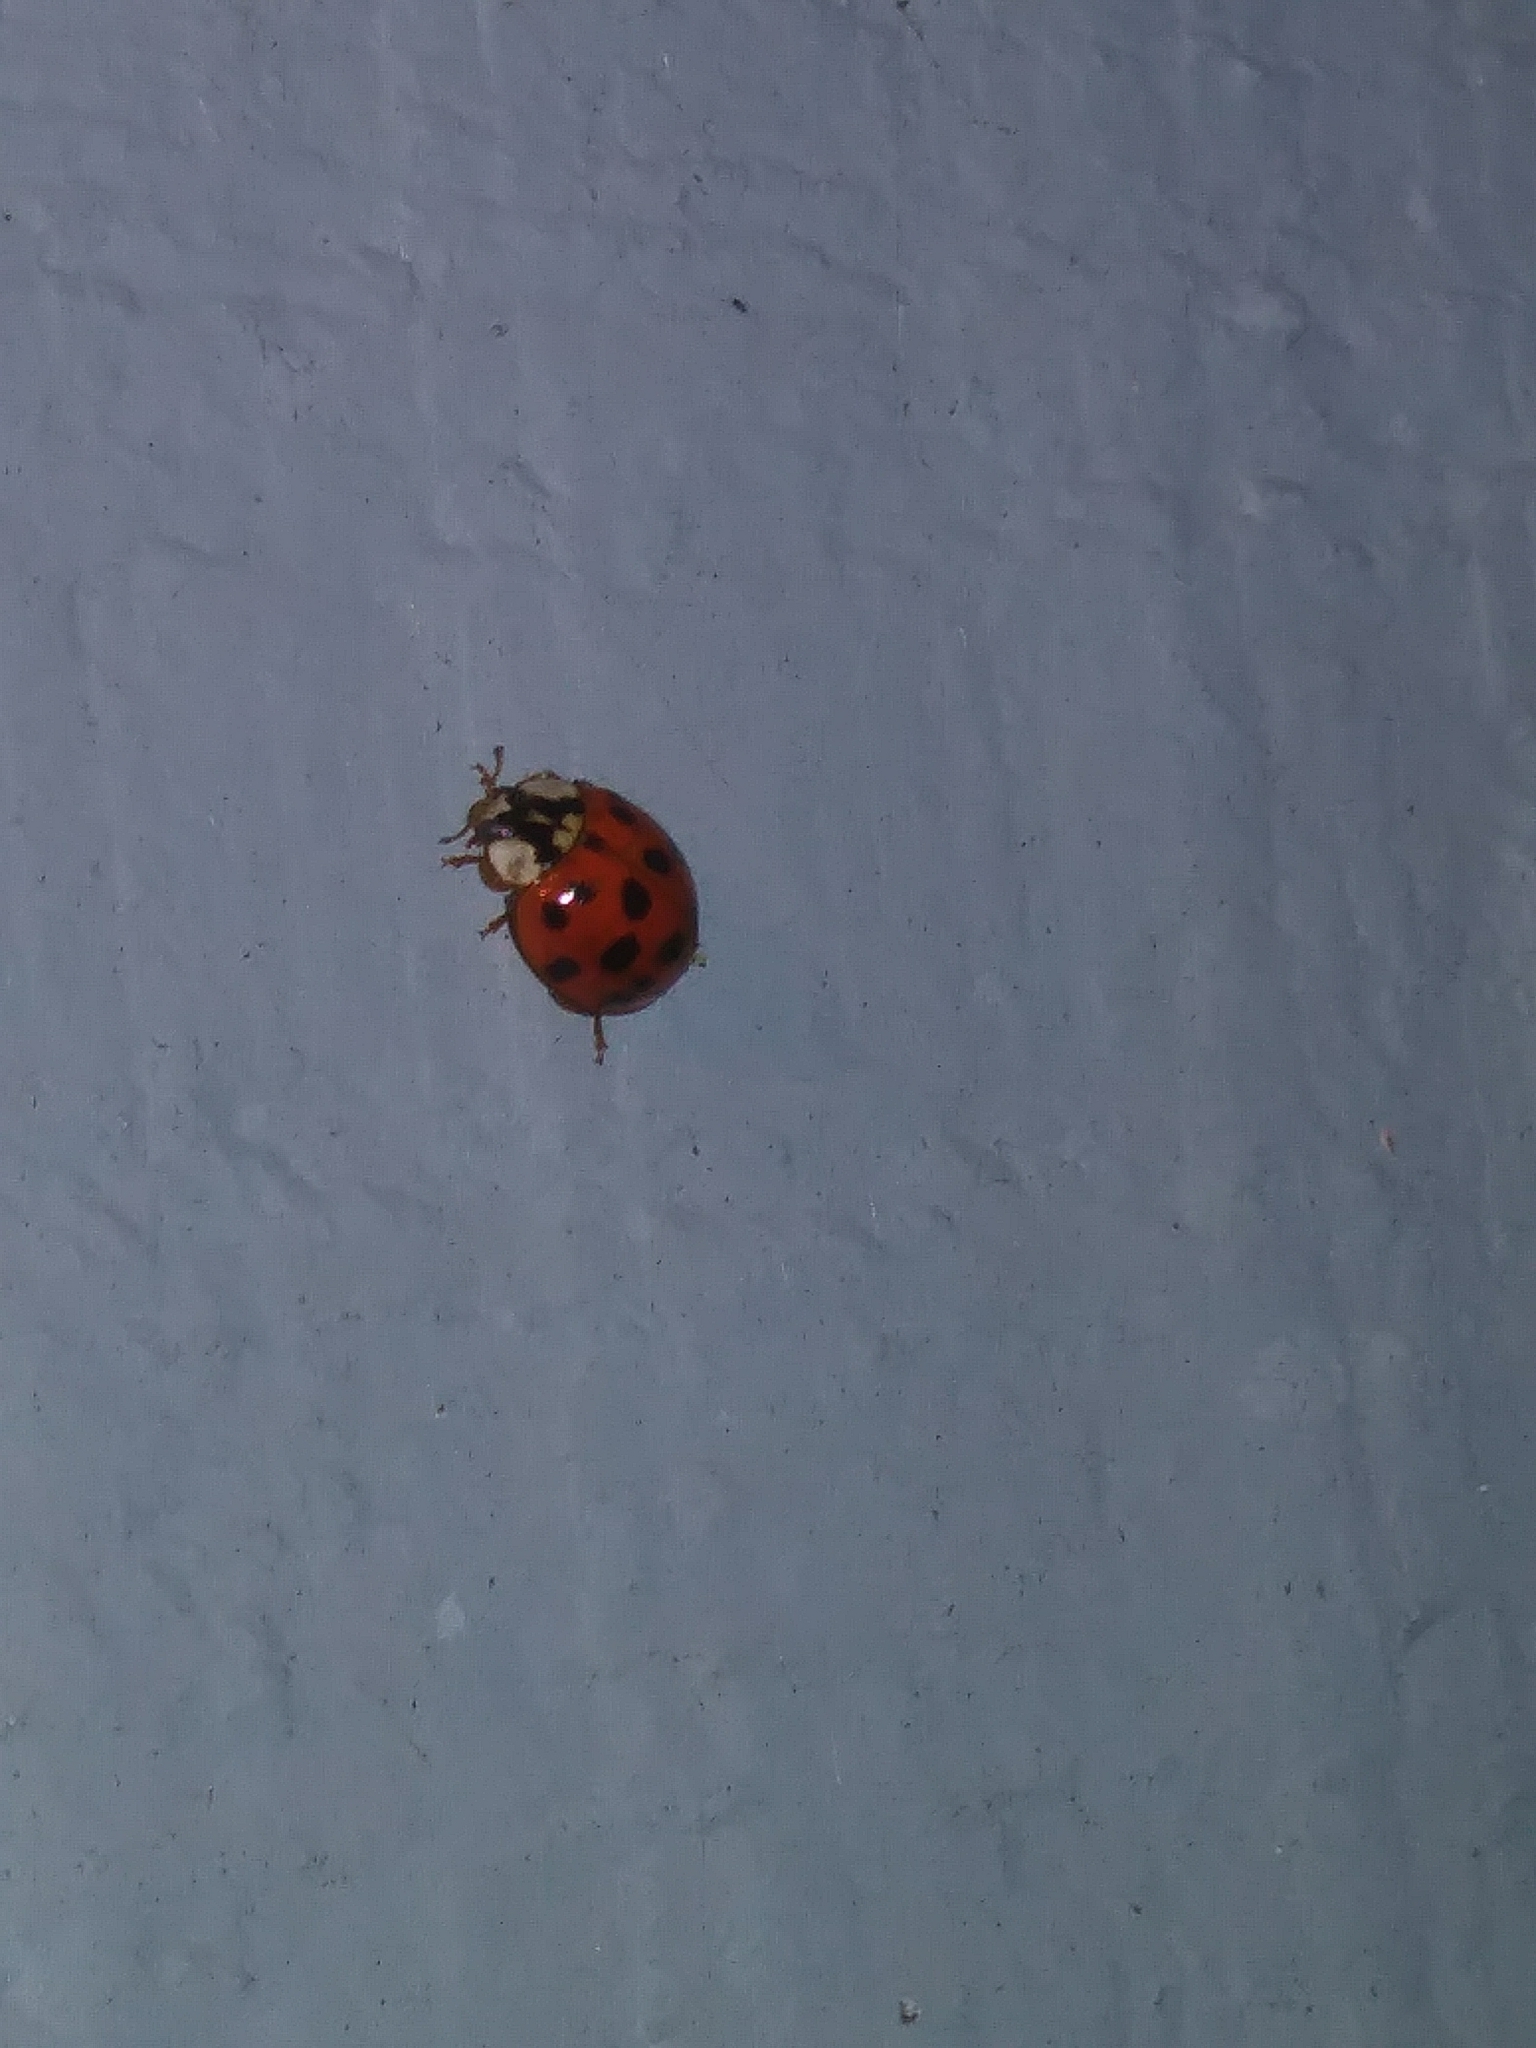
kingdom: Animalia
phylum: Arthropoda
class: Insecta
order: Coleoptera
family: Coccinellidae
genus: Harmonia
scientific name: Harmonia axyridis
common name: Harlequin ladybird
